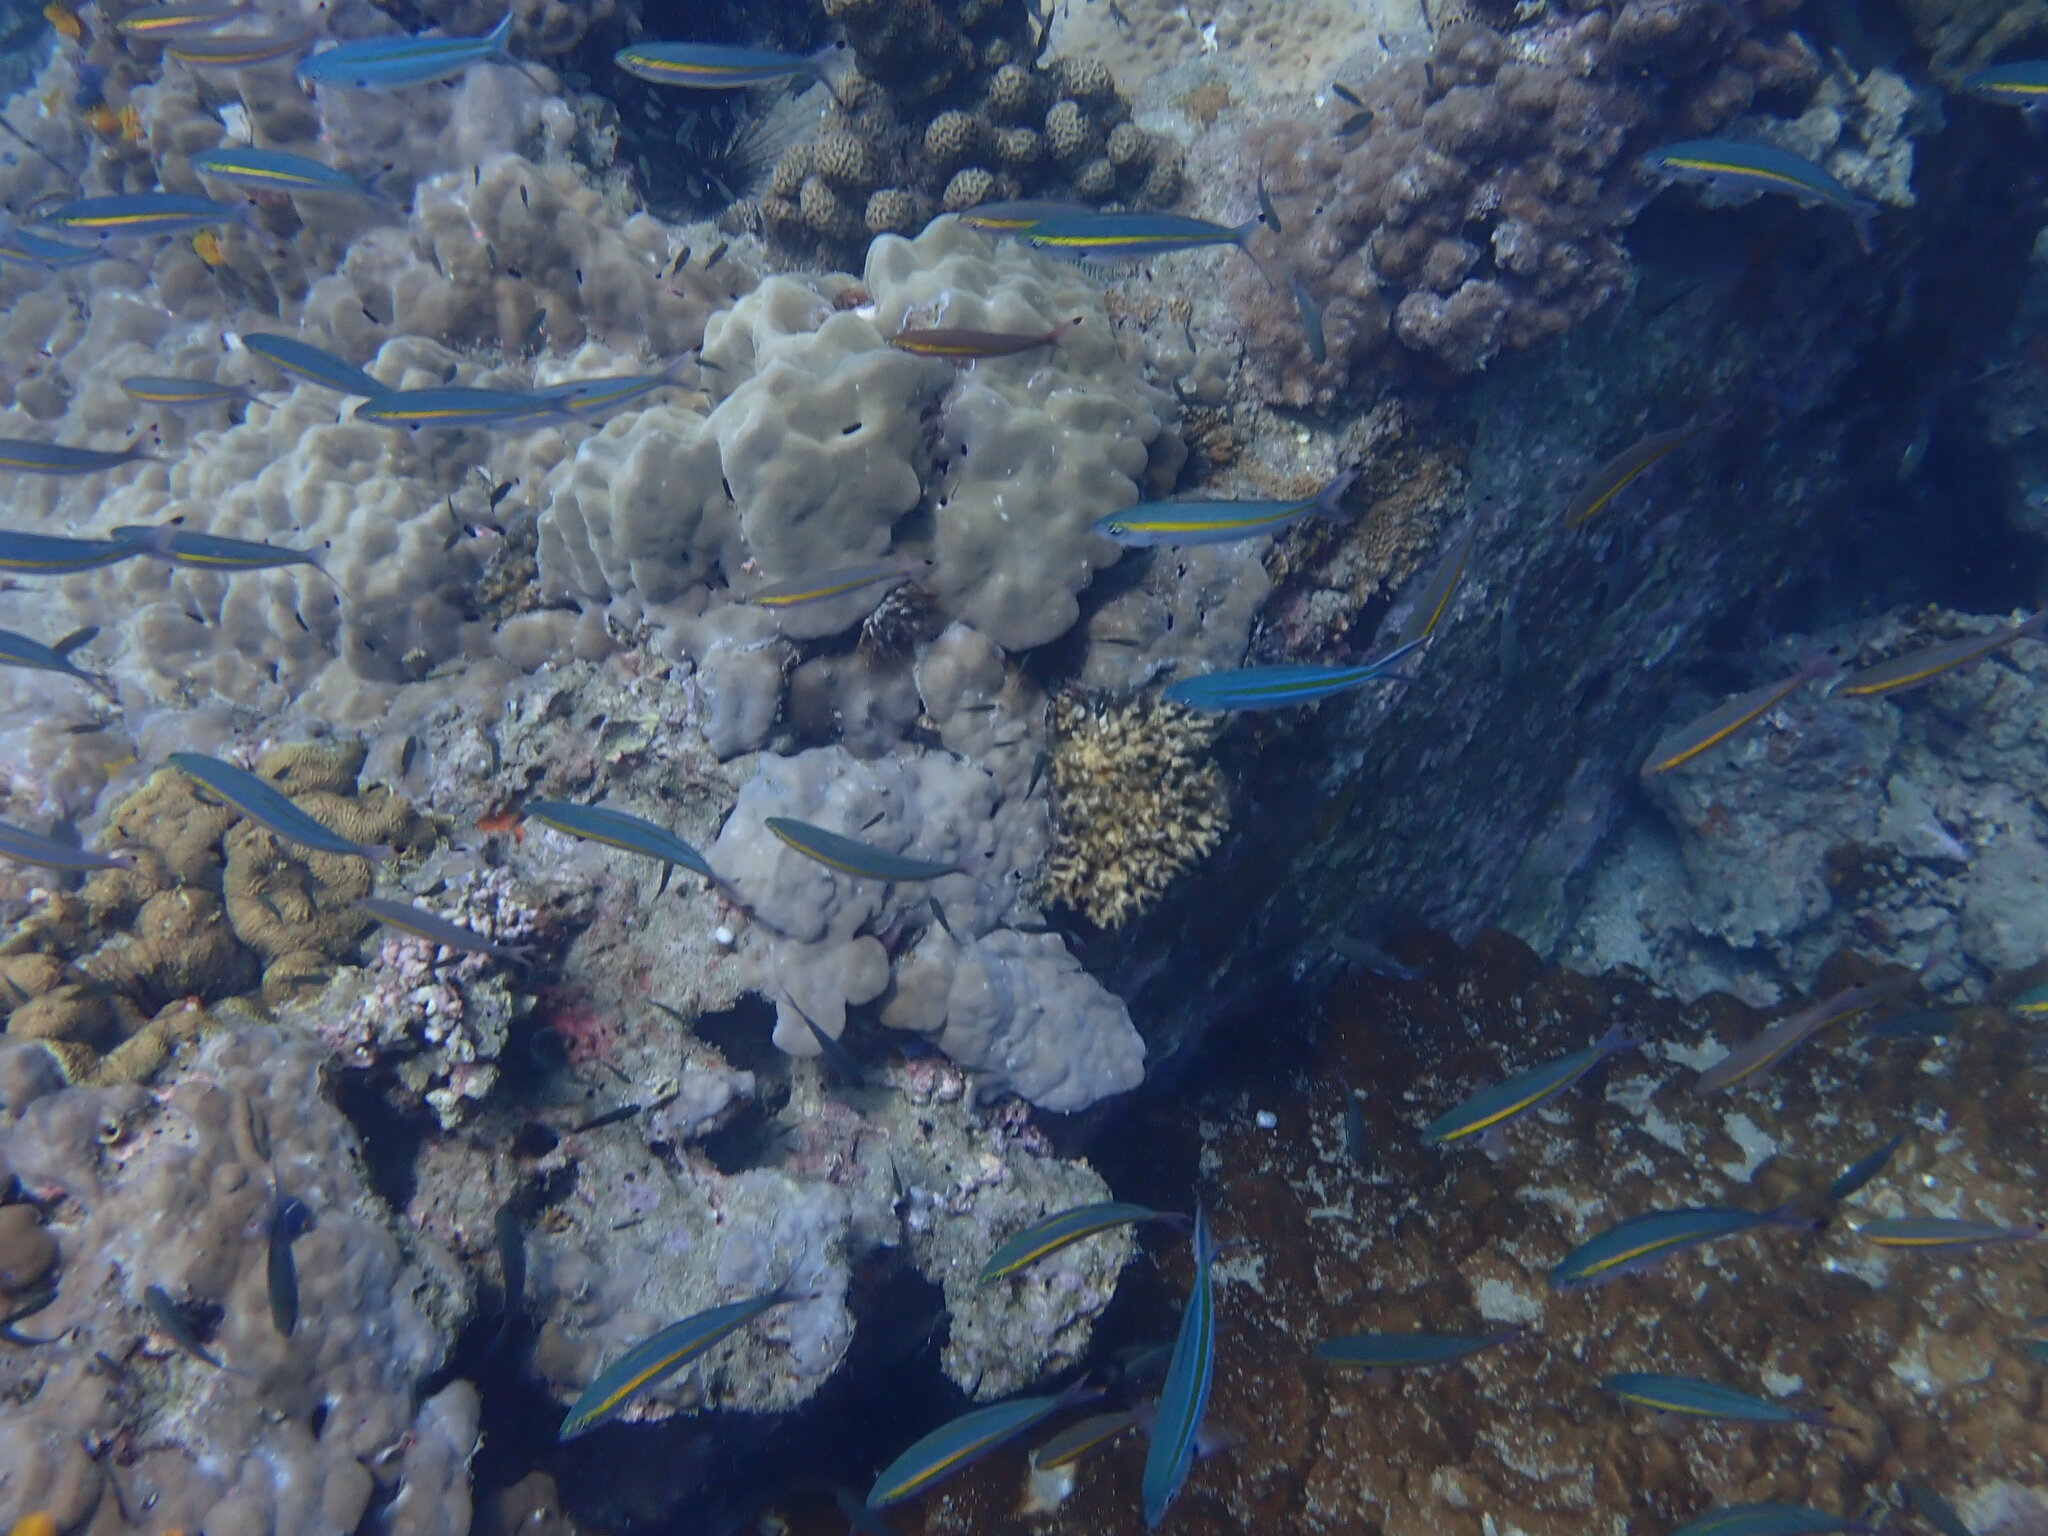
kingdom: Animalia
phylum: Chordata
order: Perciformes
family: Caesionidae
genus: Pterocaesio
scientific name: Pterocaesio chrysozona
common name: Goldband fusilier
